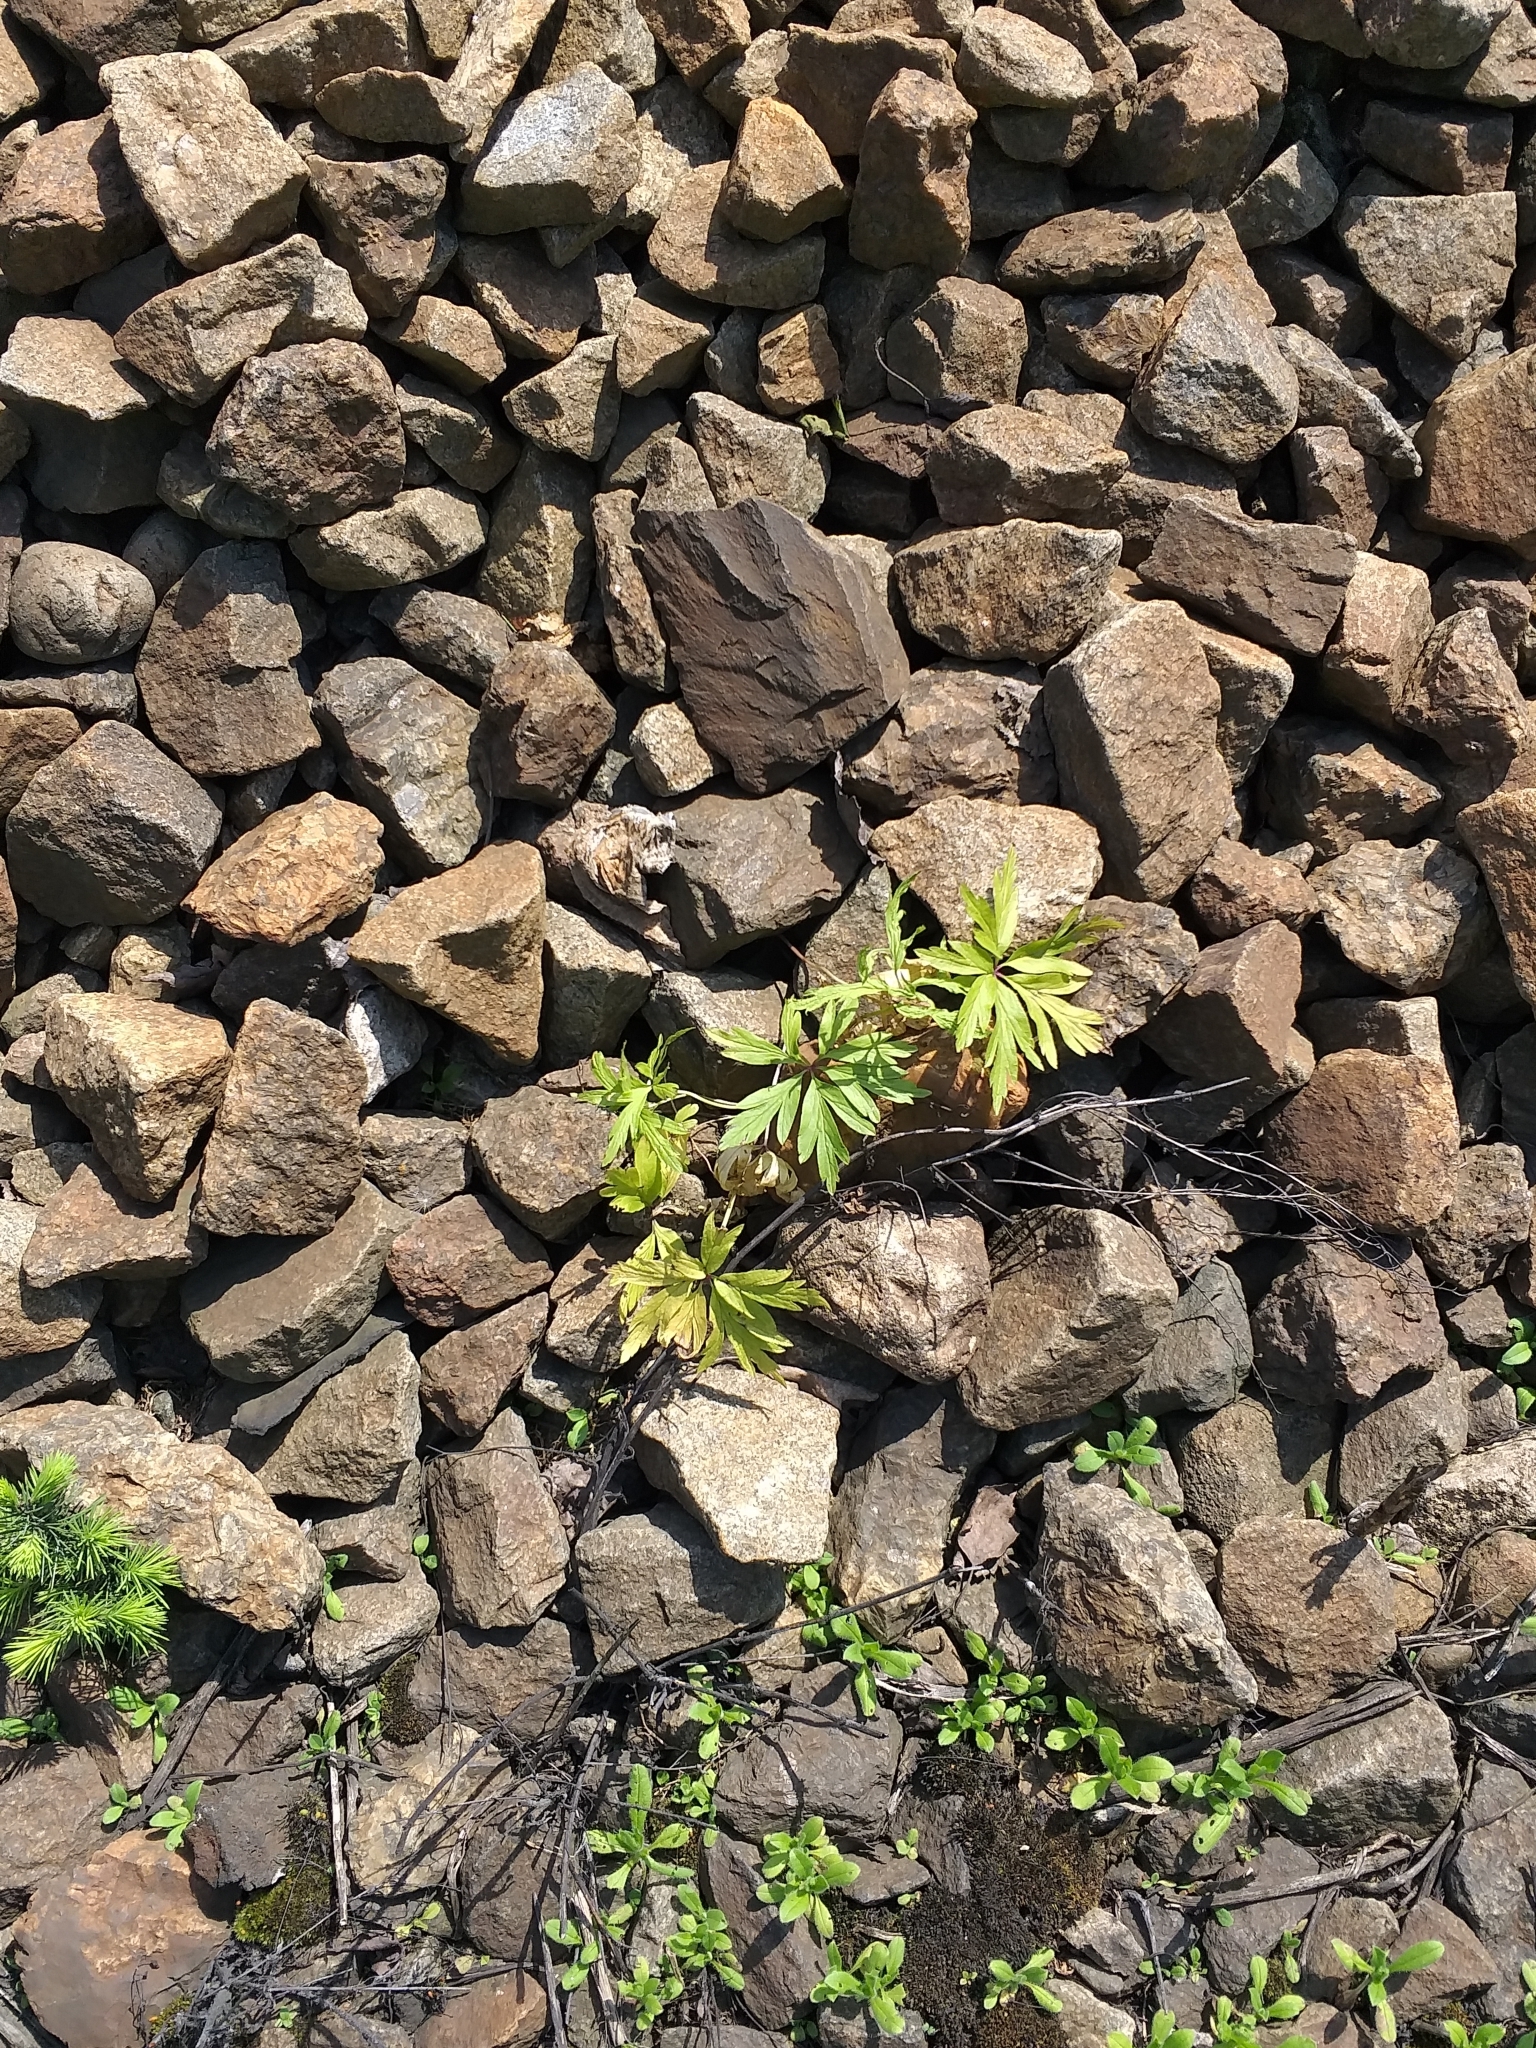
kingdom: Plantae
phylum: Tracheophyta
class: Magnoliopsida
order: Ranunculales
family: Ranunculaceae
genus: Anemone
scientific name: Anemone ranunculoides
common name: Yellow anemone
